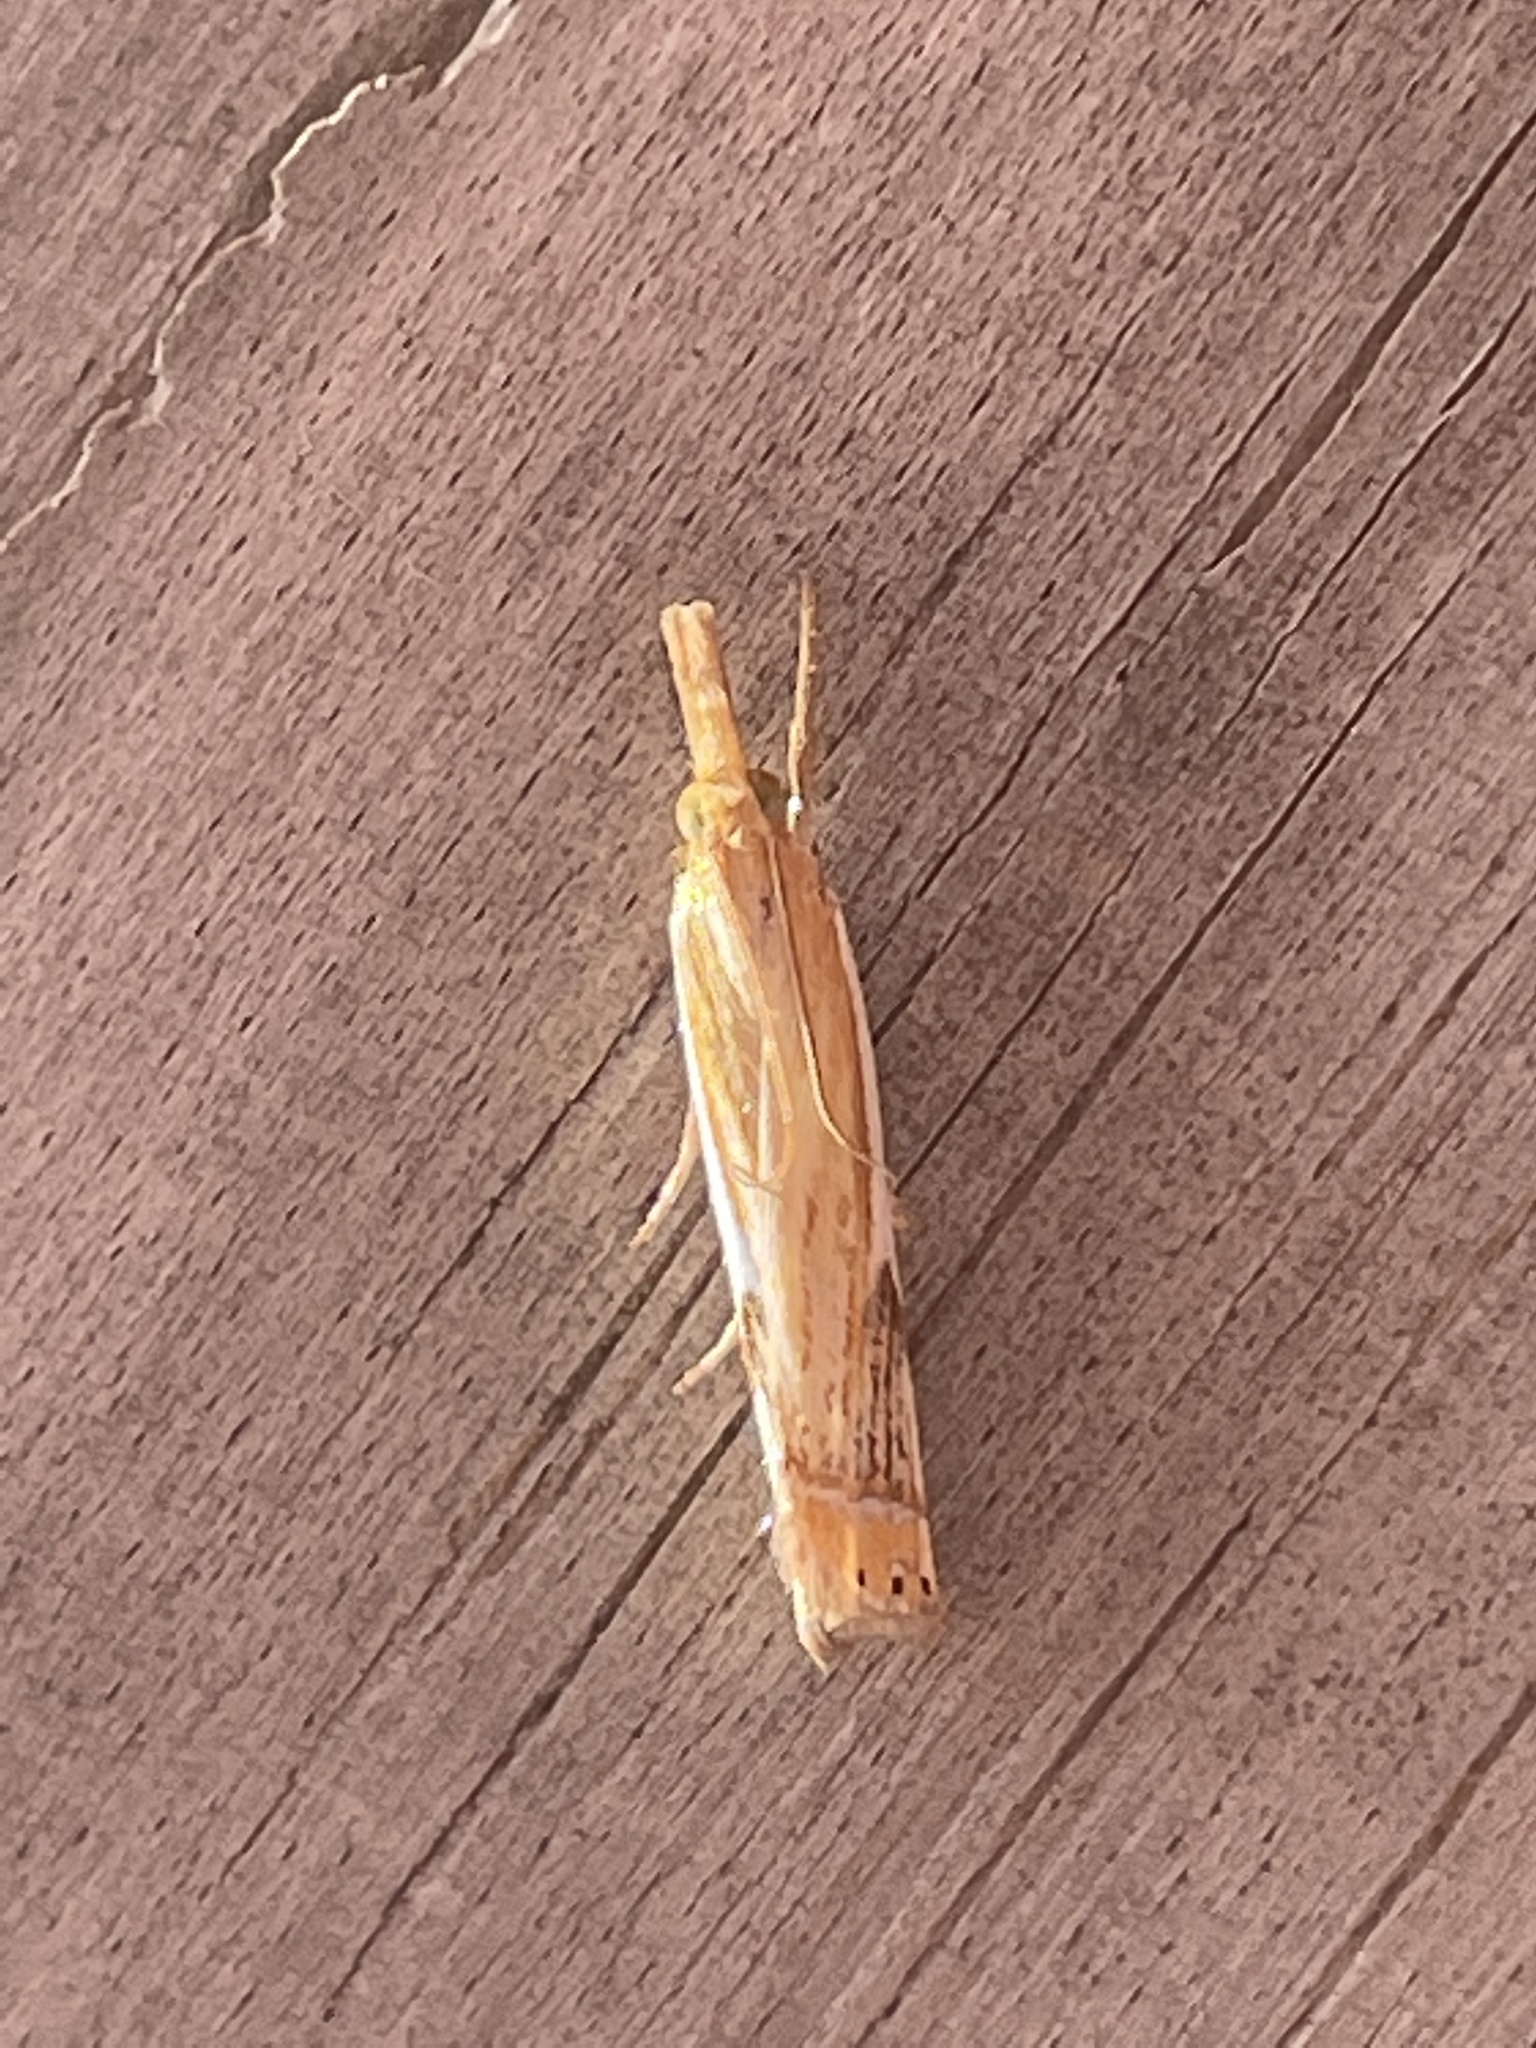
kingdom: Animalia
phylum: Arthropoda
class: Insecta
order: Lepidoptera
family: Crambidae
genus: Crambus
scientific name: Crambus agitatellus
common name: Double-banded grass-veneer
